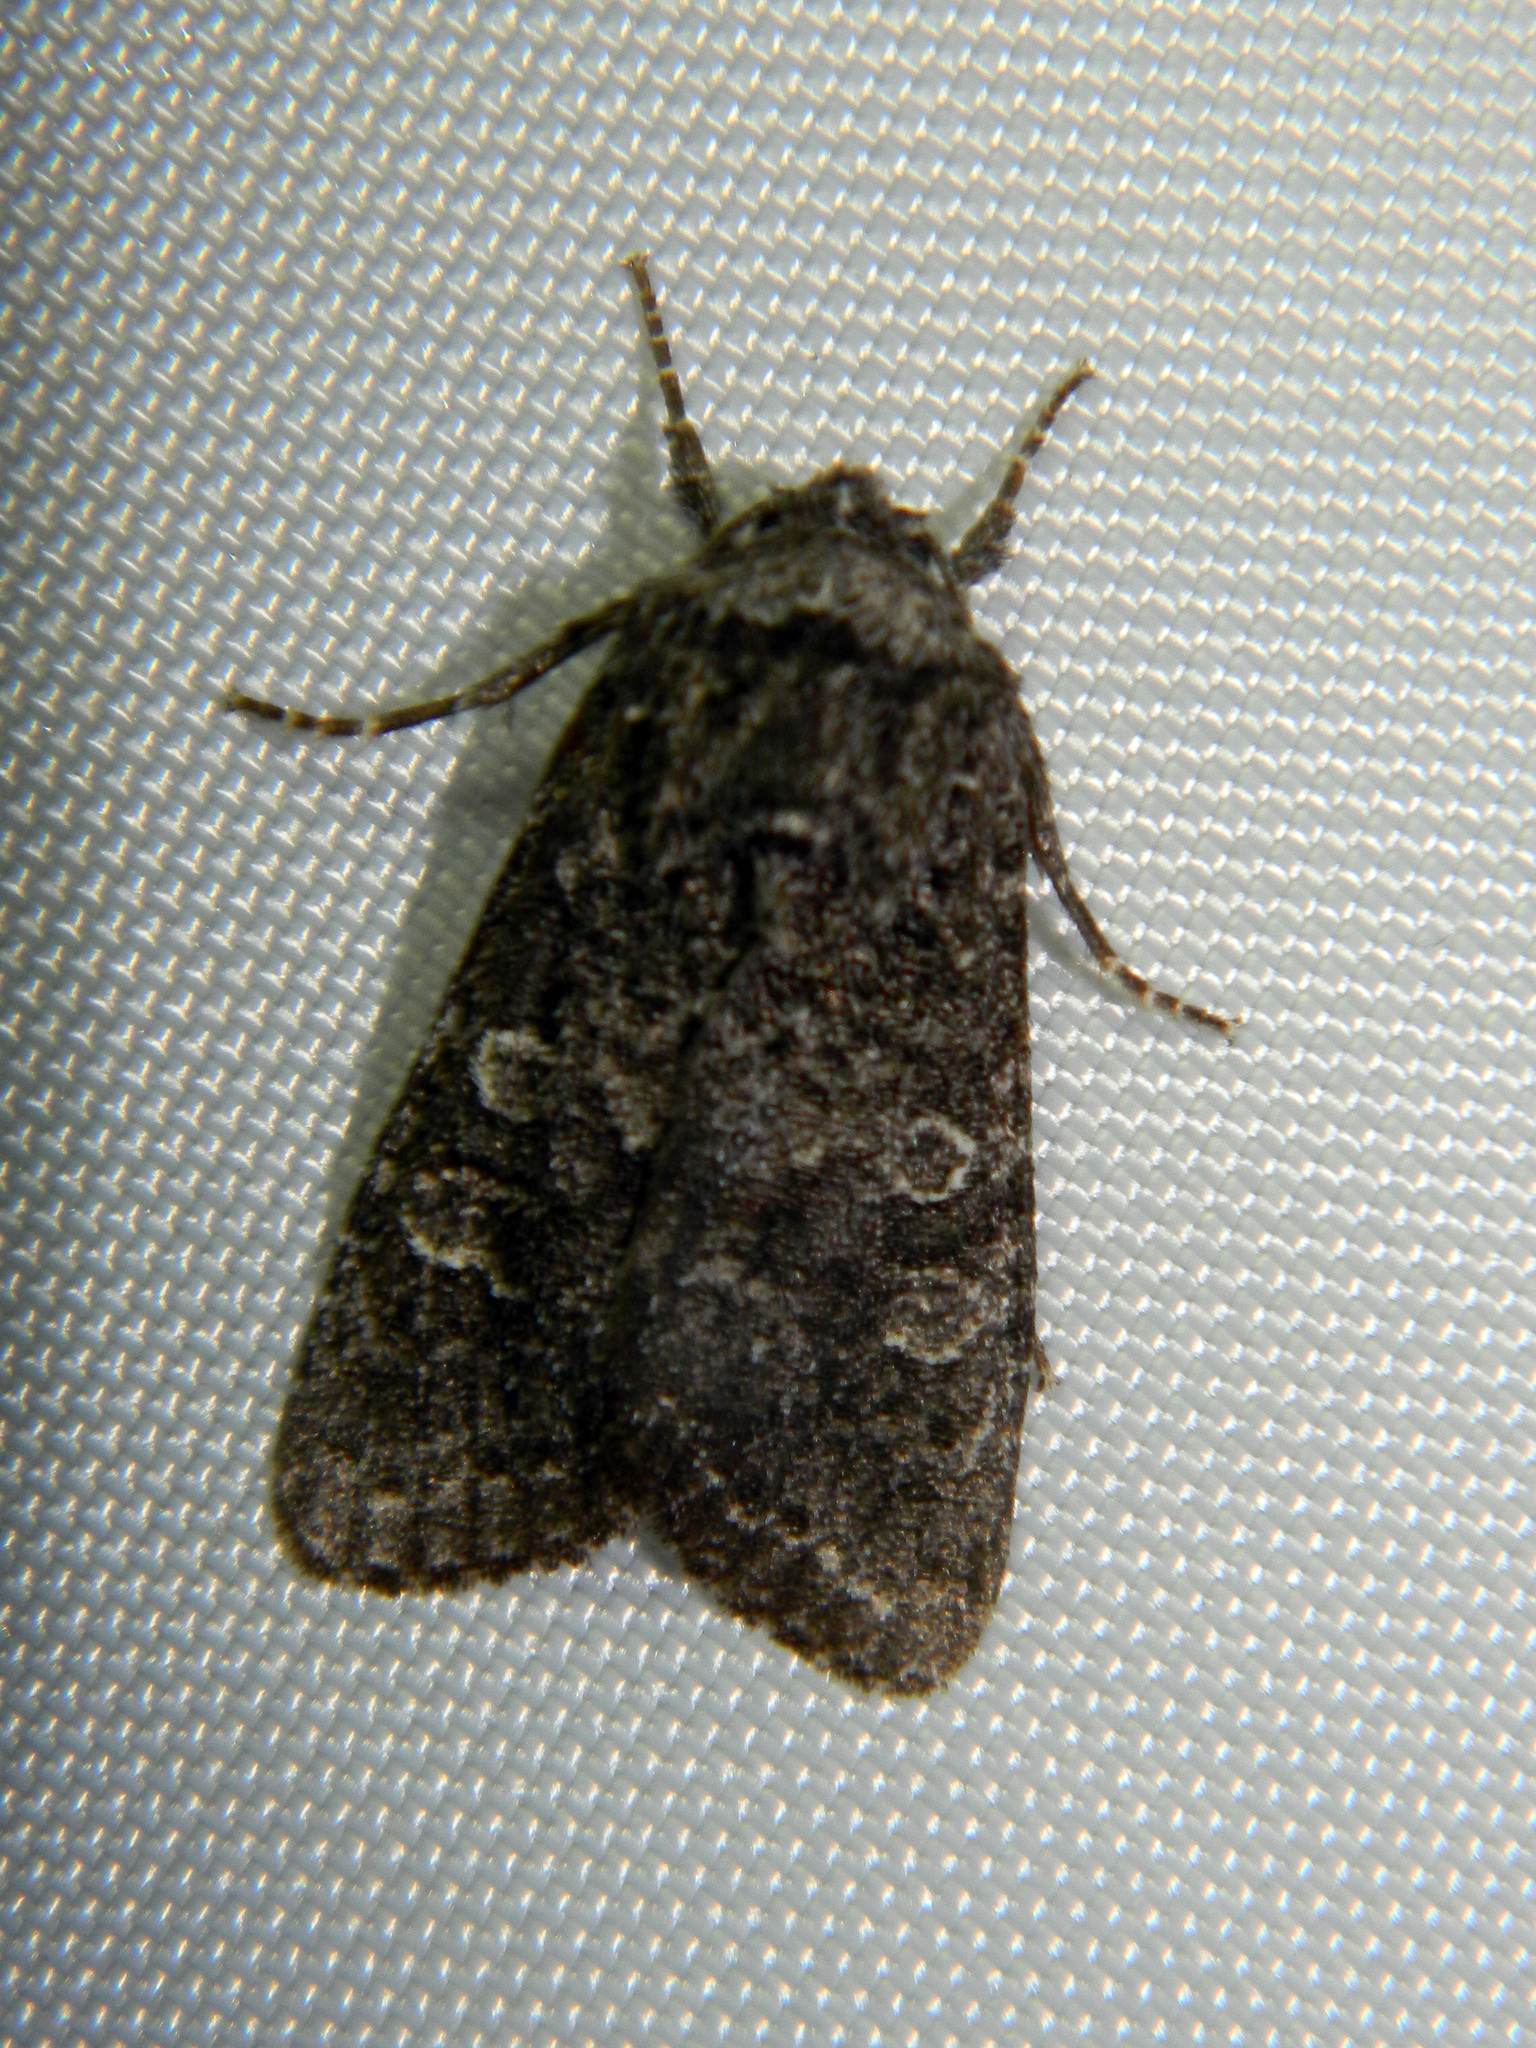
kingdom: Animalia
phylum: Arthropoda
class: Insecta
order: Lepidoptera
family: Noctuidae
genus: Egira
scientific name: Egira dolosa
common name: Lined black aspen cat.
